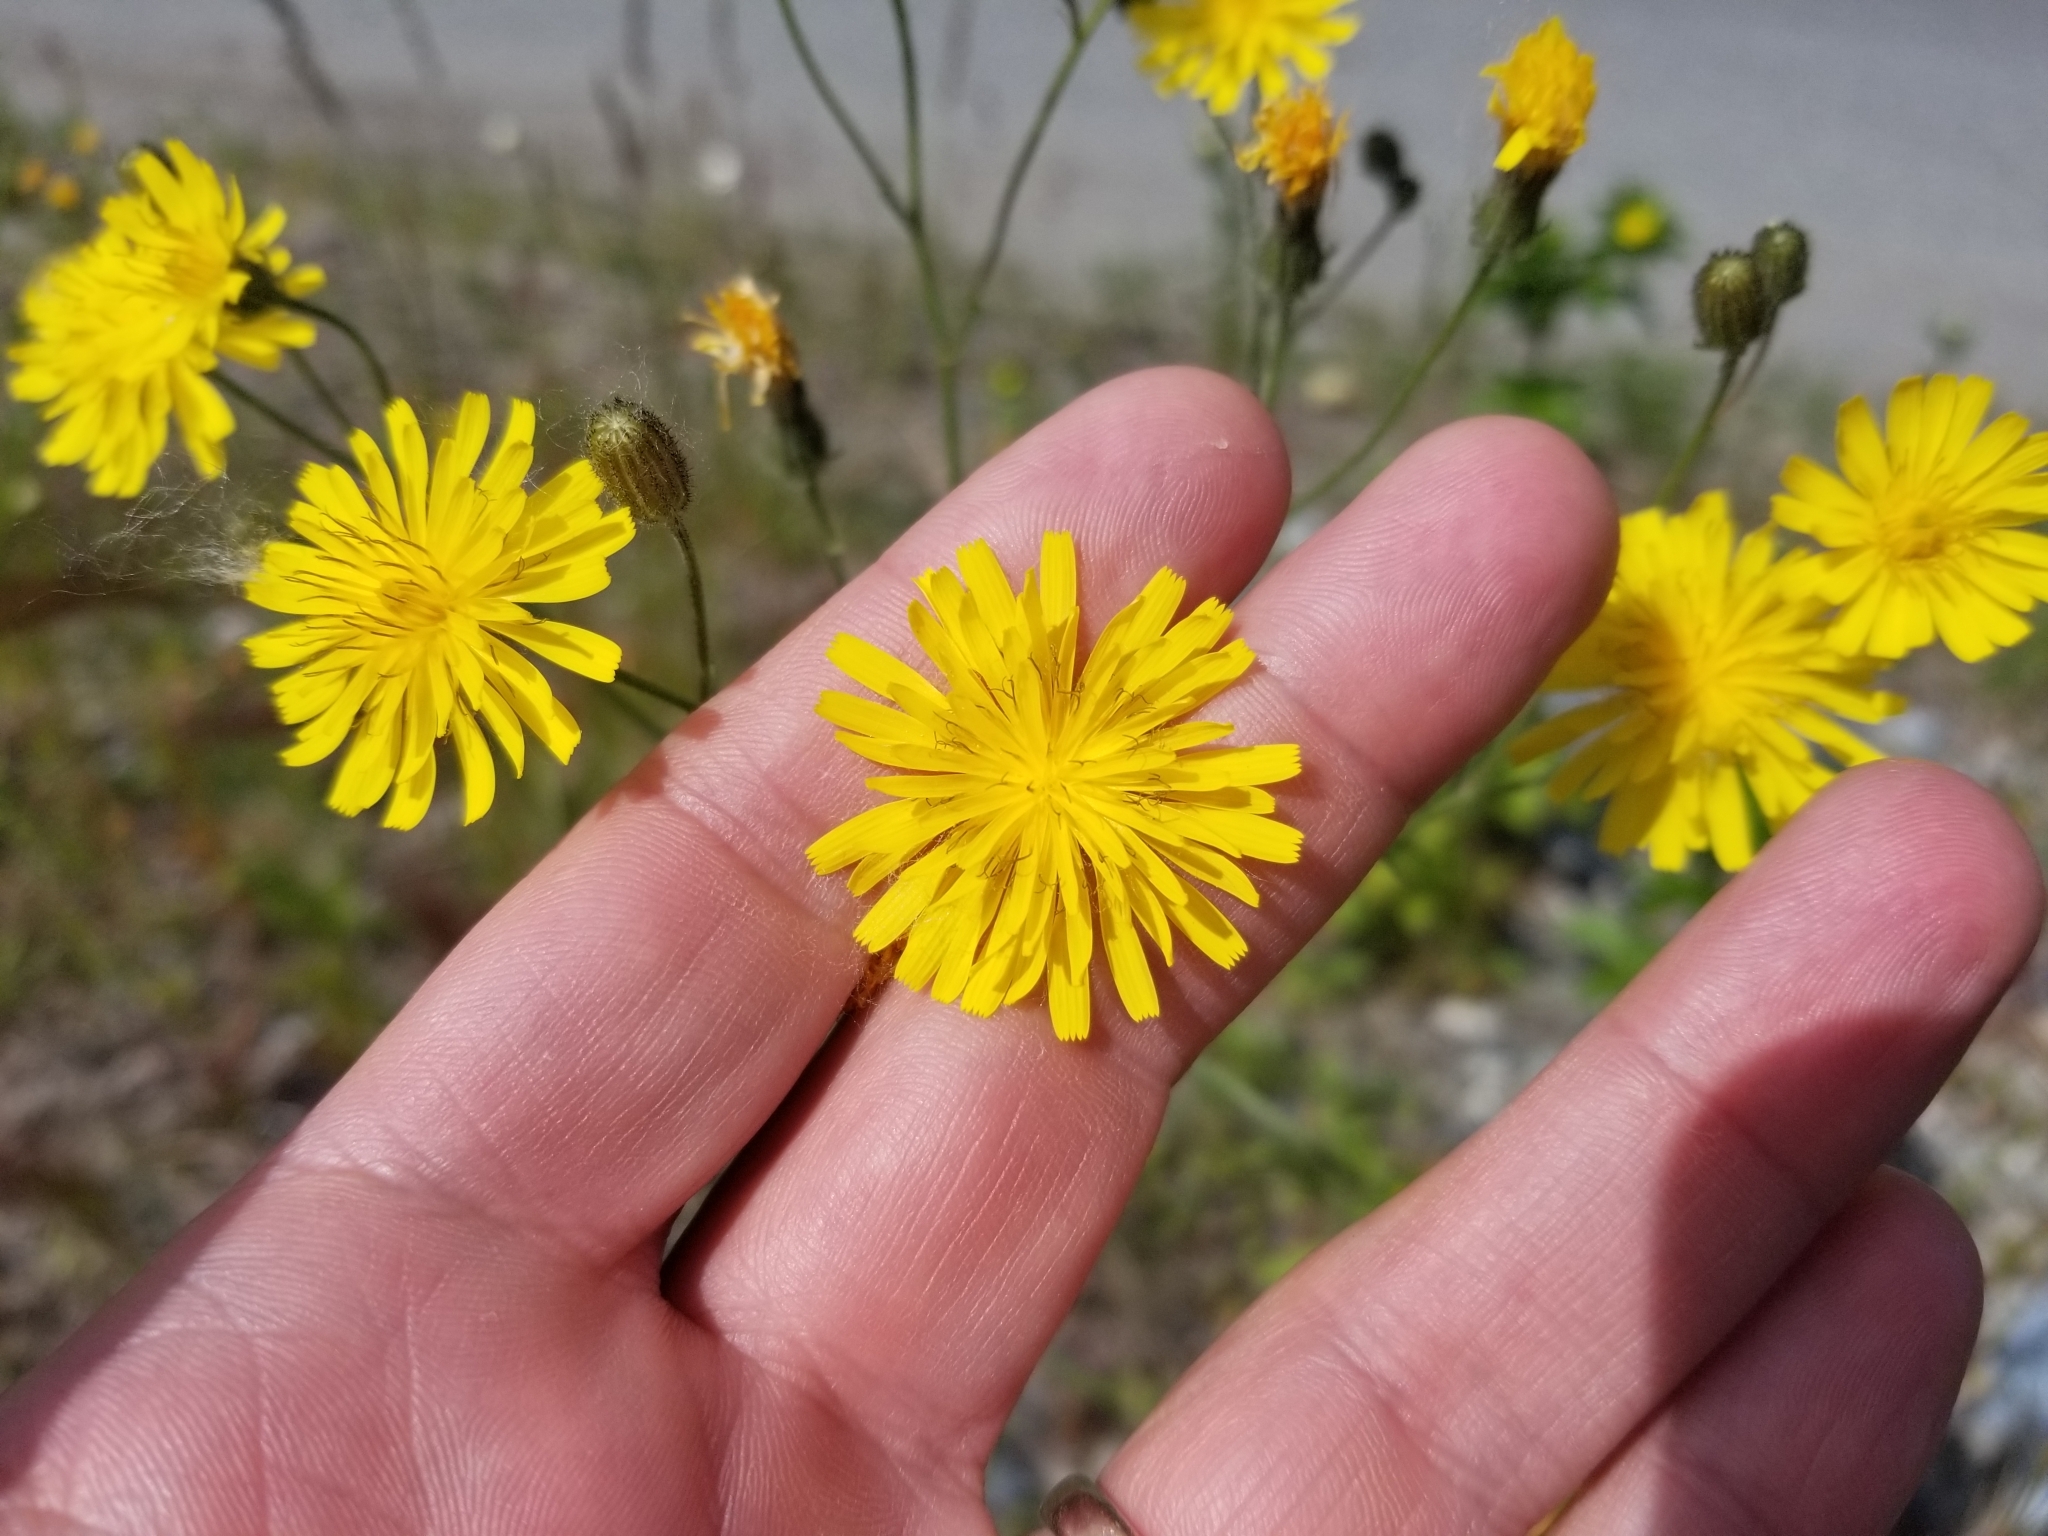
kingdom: Plantae
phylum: Tracheophyta
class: Magnoliopsida
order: Asterales
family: Asteraceae
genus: Crepis
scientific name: Crepis tectorum
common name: Narrow-leaved hawk's-beard
